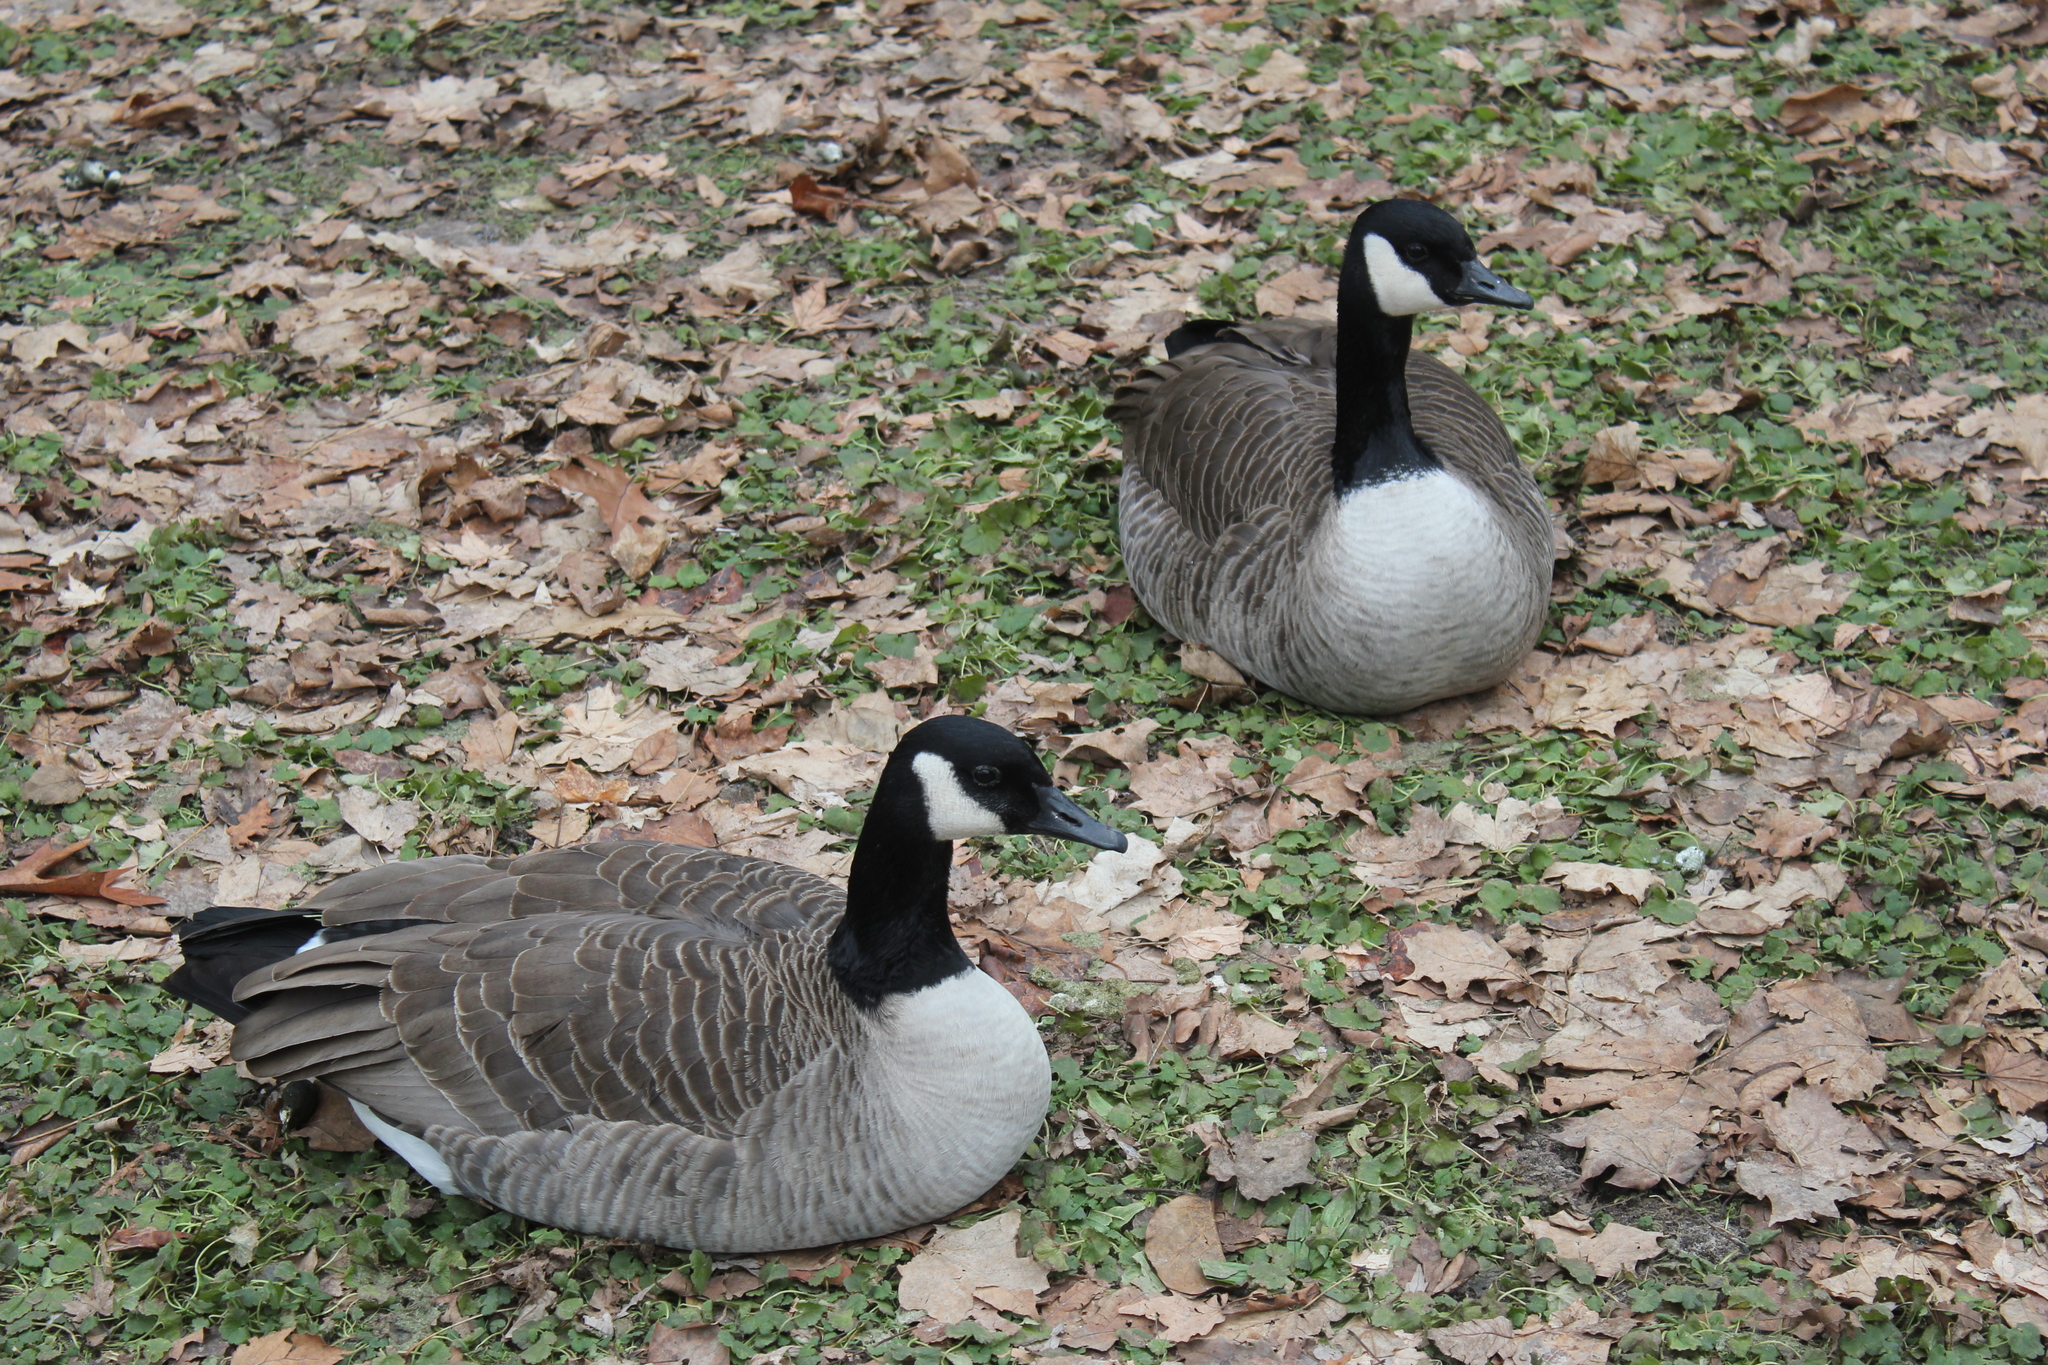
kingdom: Animalia
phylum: Chordata
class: Aves
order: Anseriformes
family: Anatidae
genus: Branta
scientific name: Branta canadensis
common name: Canada goose
